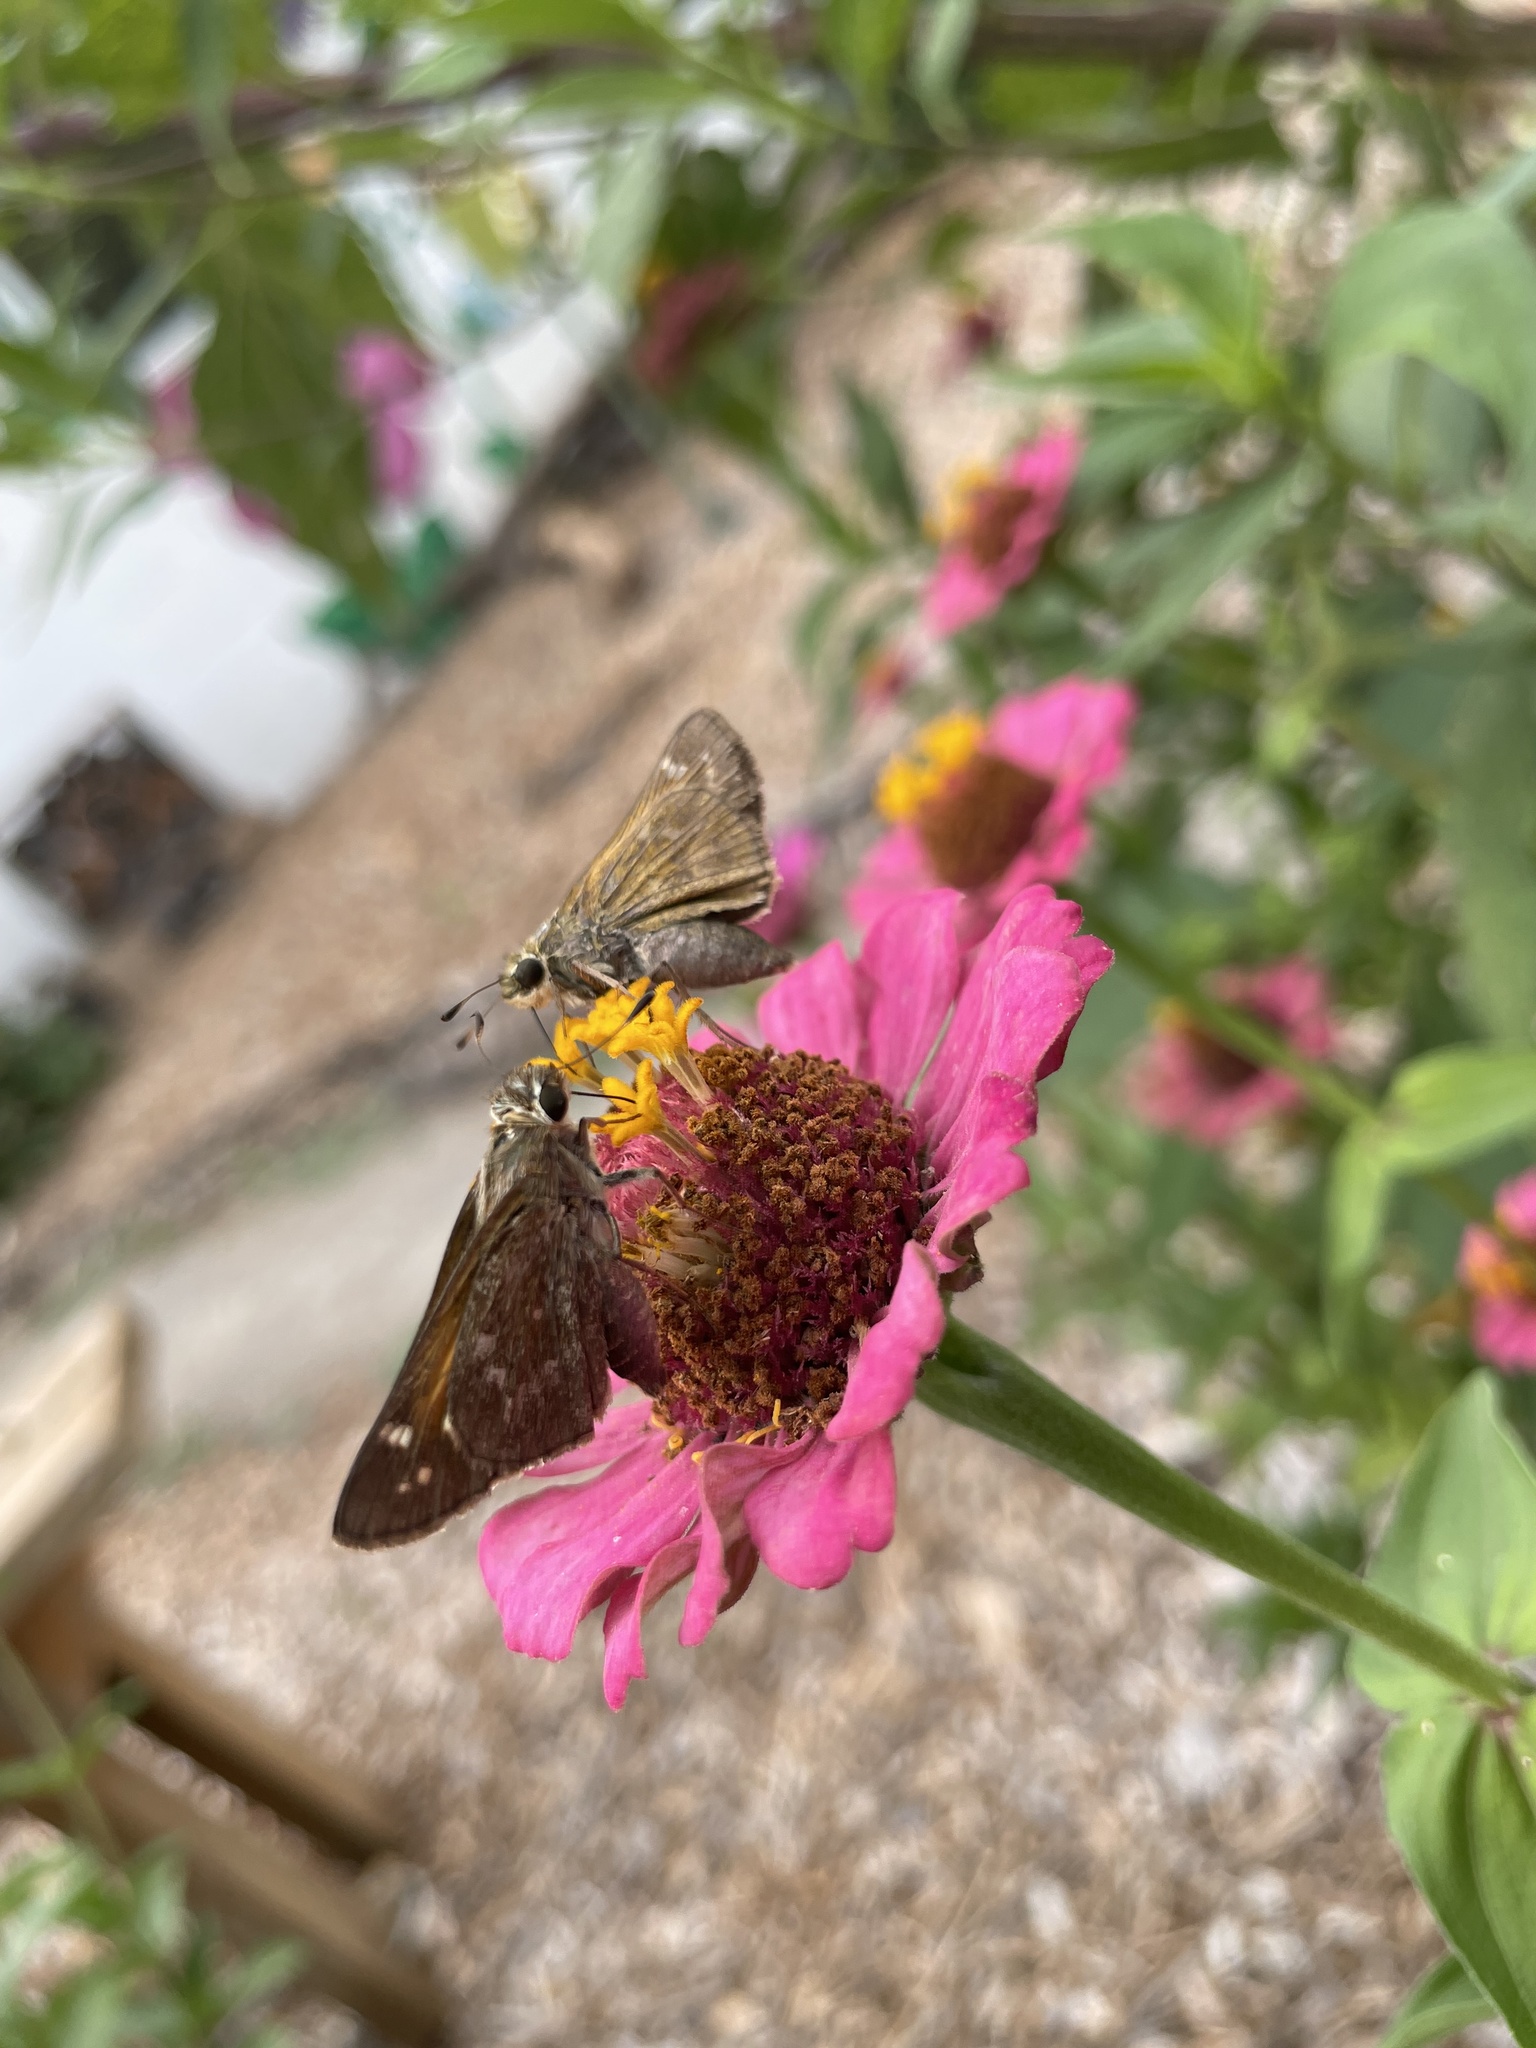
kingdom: Animalia
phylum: Arthropoda
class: Insecta
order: Lepidoptera
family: Hesperiidae
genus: Atalopedes
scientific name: Atalopedes
